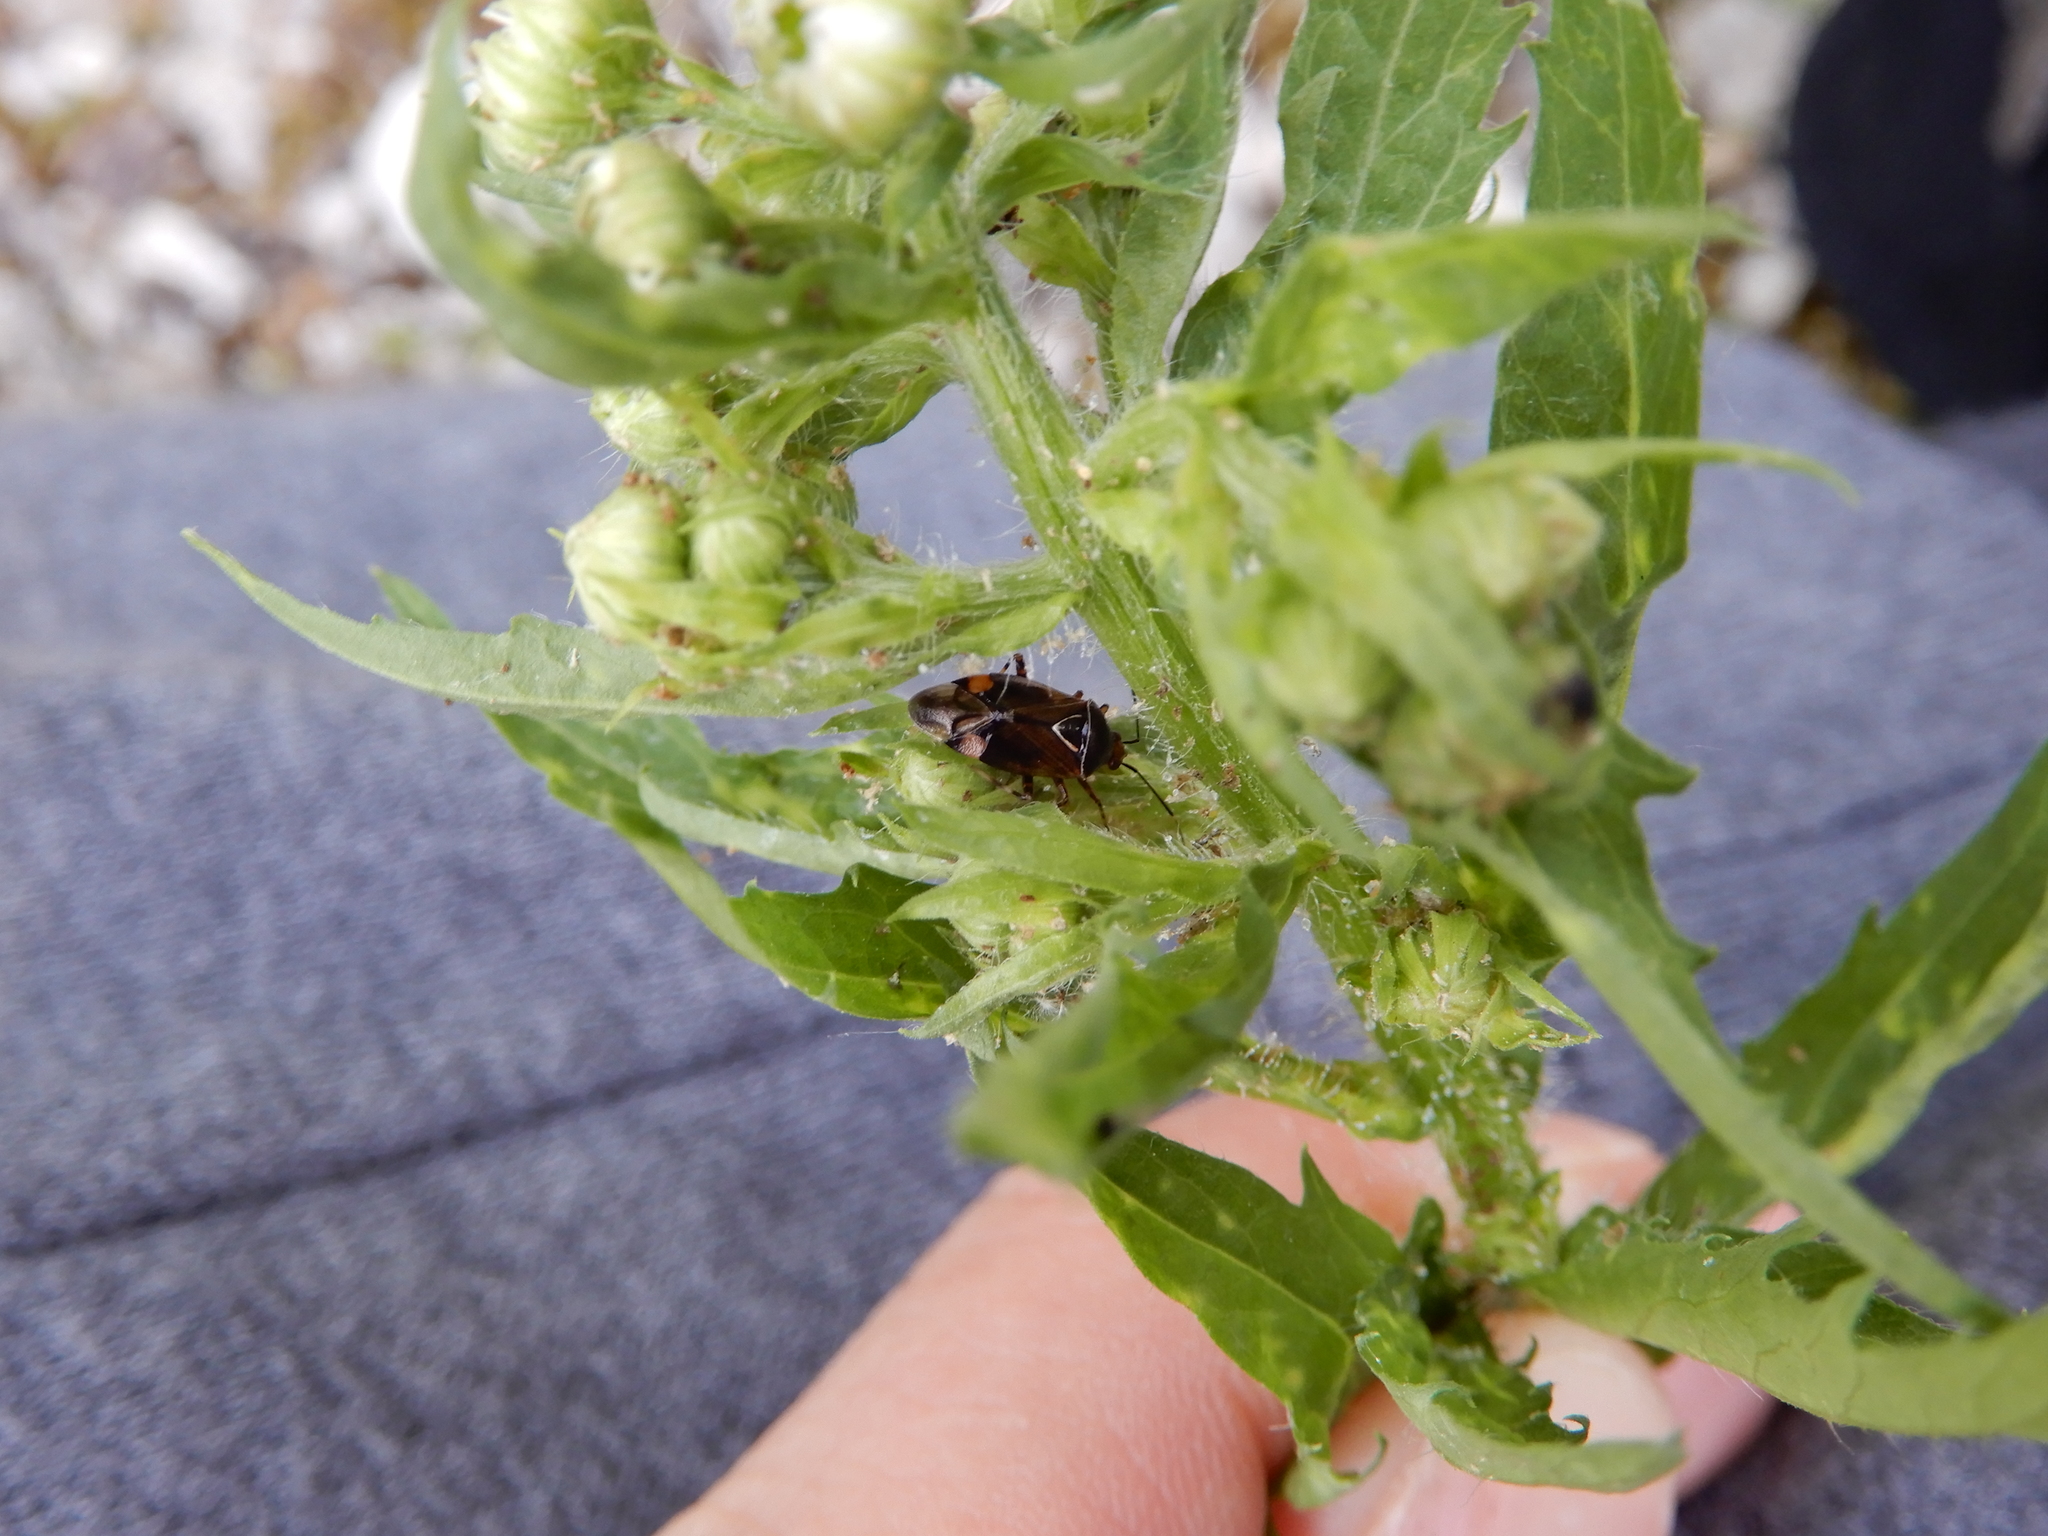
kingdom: Animalia
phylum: Arthropoda
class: Insecta
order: Hemiptera
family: Miridae
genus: Deraeocoris
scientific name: Deraeocoris flavilinea
